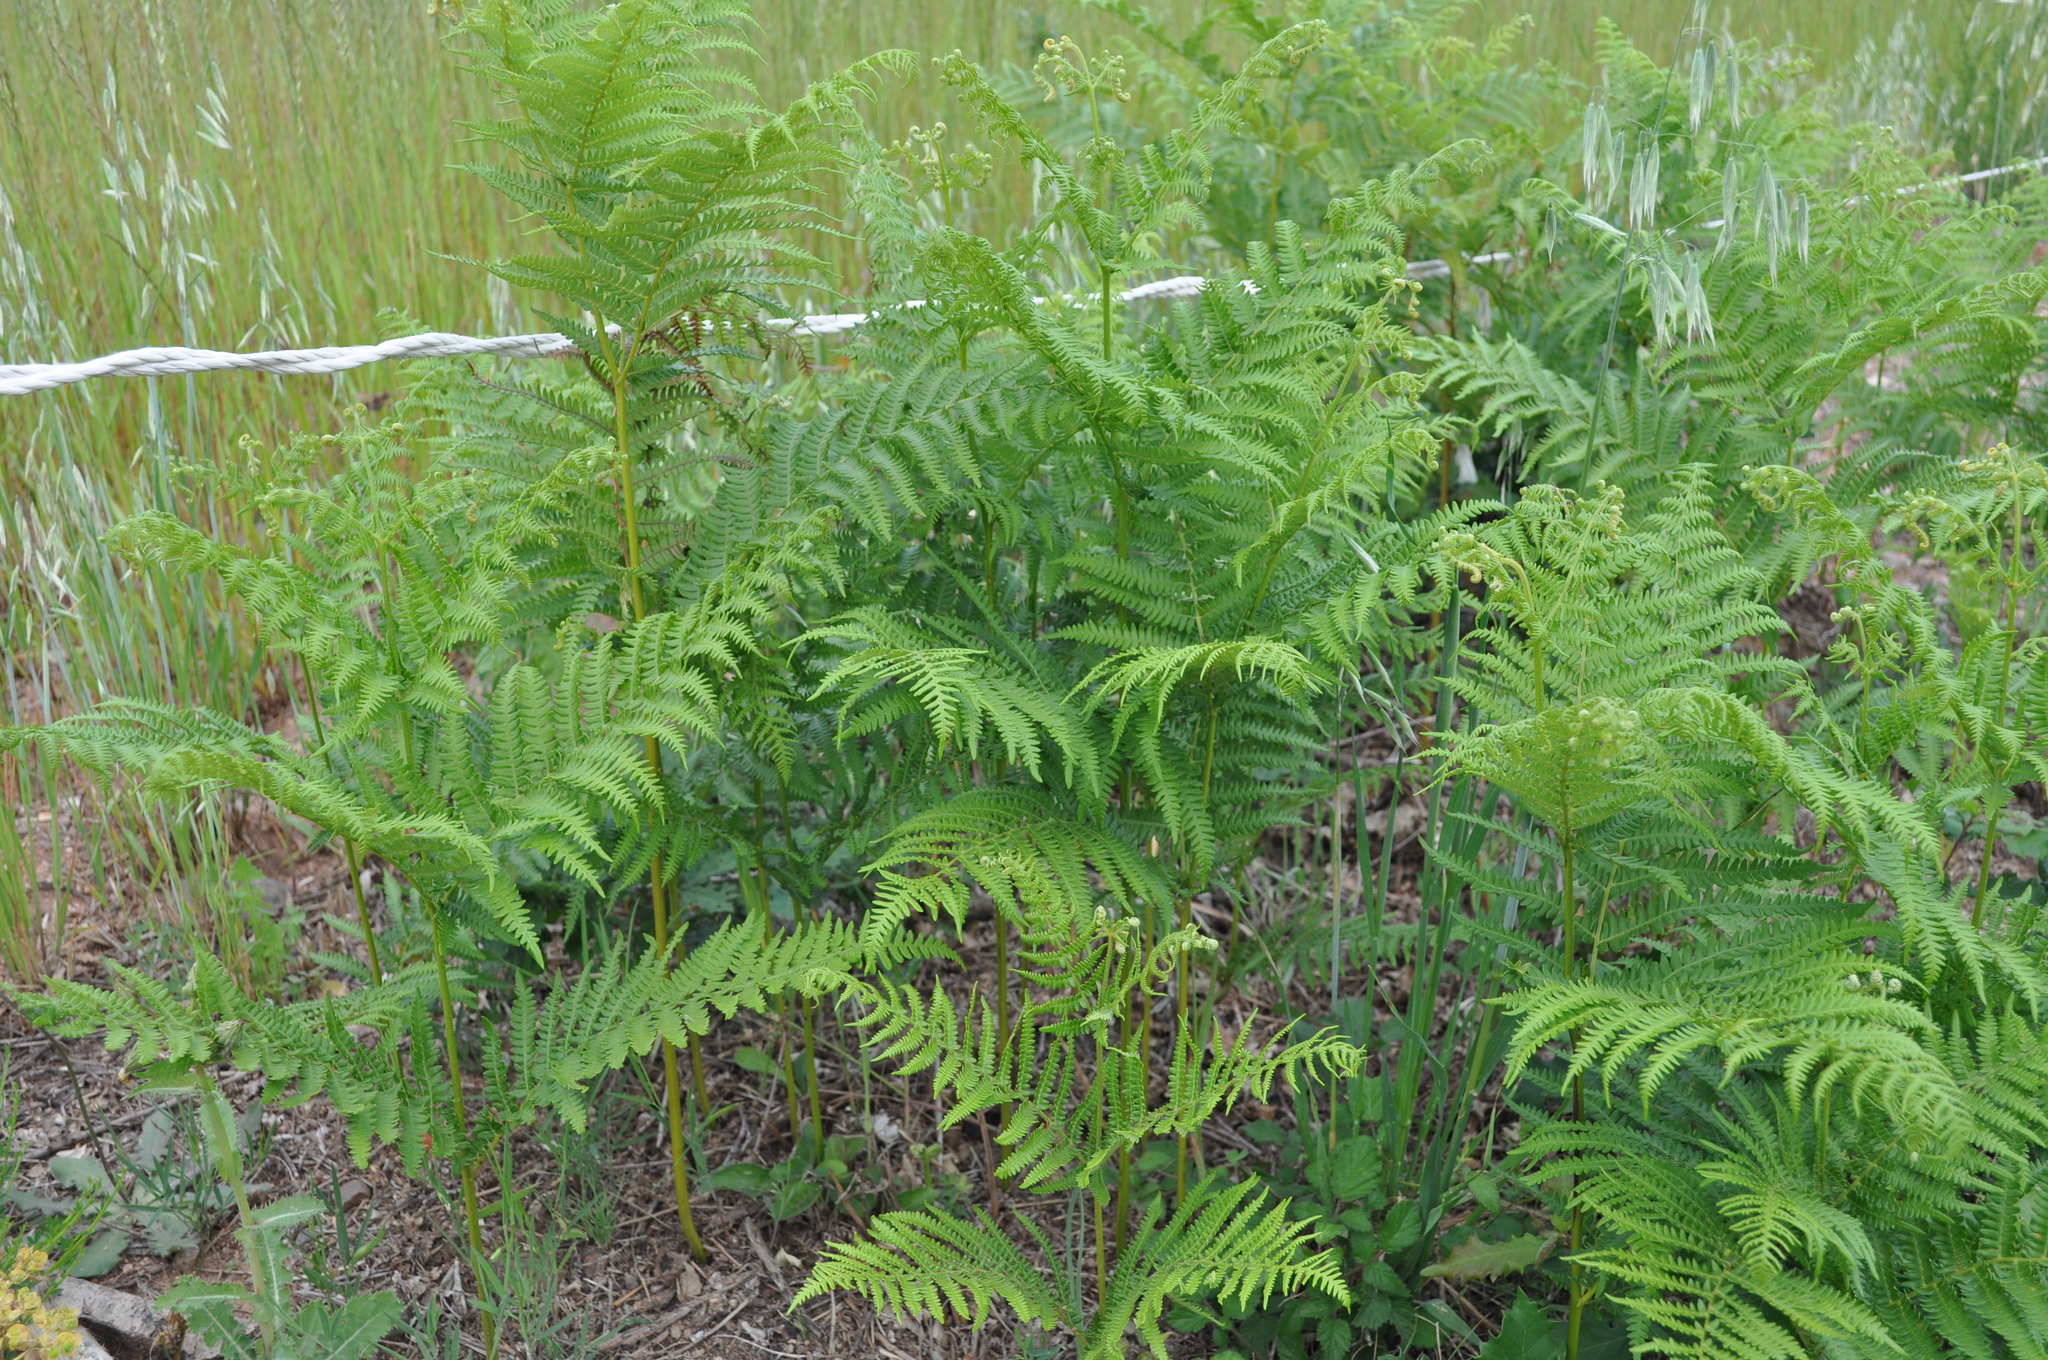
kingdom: Plantae
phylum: Tracheophyta
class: Polypodiopsida
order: Polypodiales
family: Dennstaedtiaceae
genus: Pteridium
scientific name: Pteridium aquilinum
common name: Bracken
